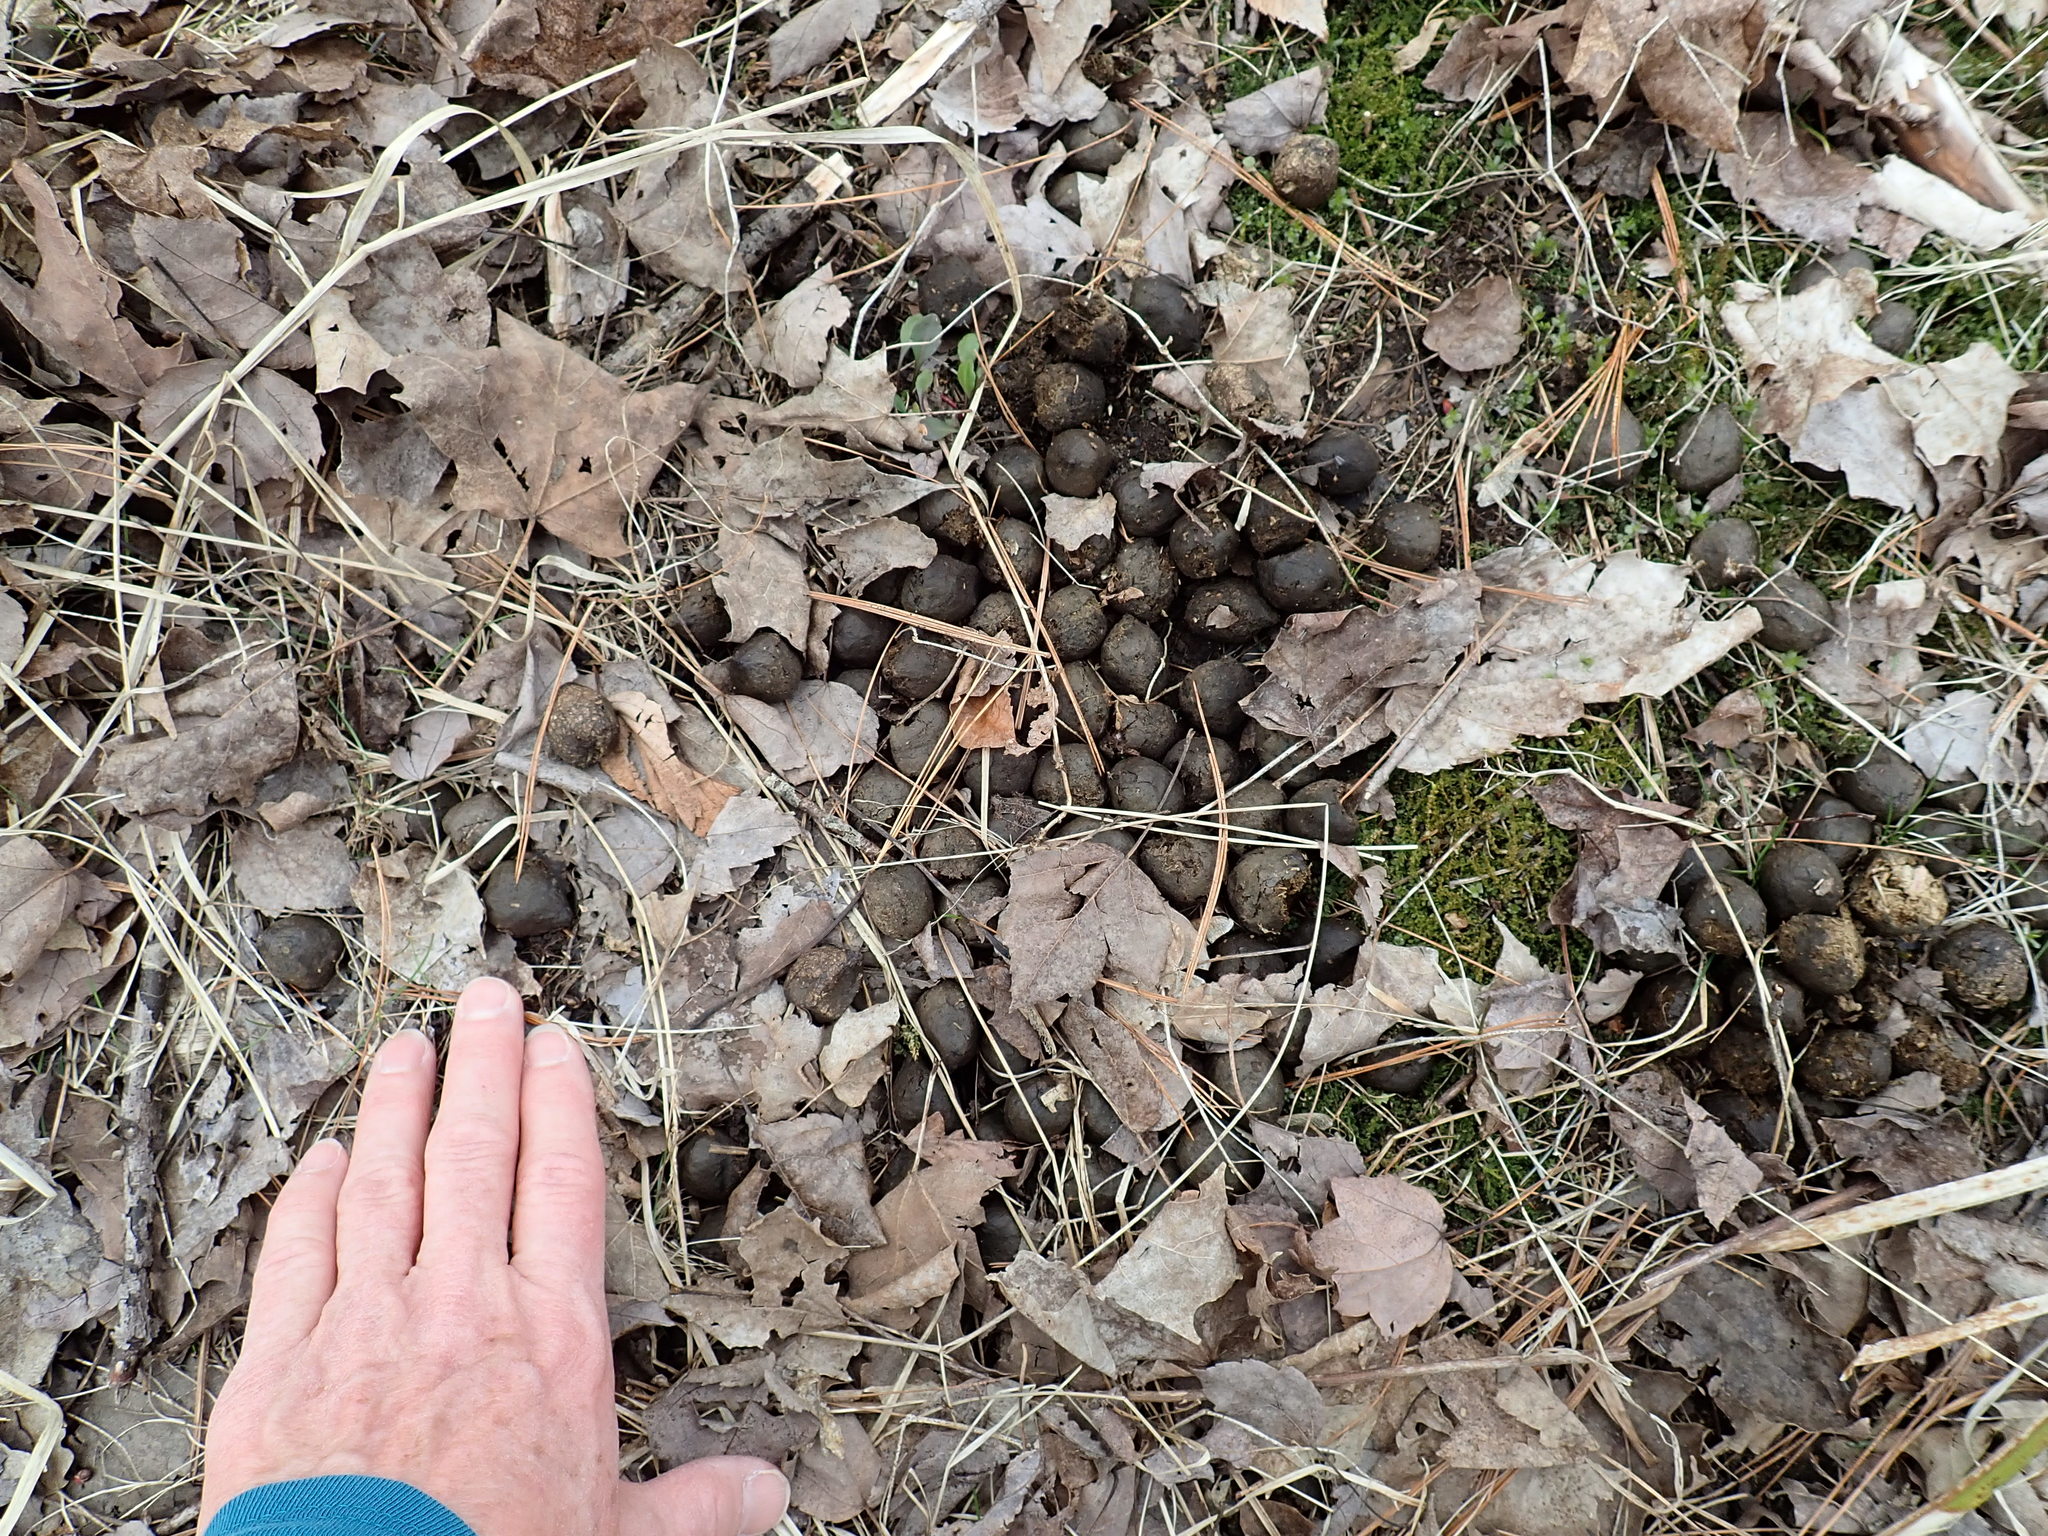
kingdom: Animalia
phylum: Chordata
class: Mammalia
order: Artiodactyla
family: Cervidae
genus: Alces
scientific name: Alces alces
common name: Moose
